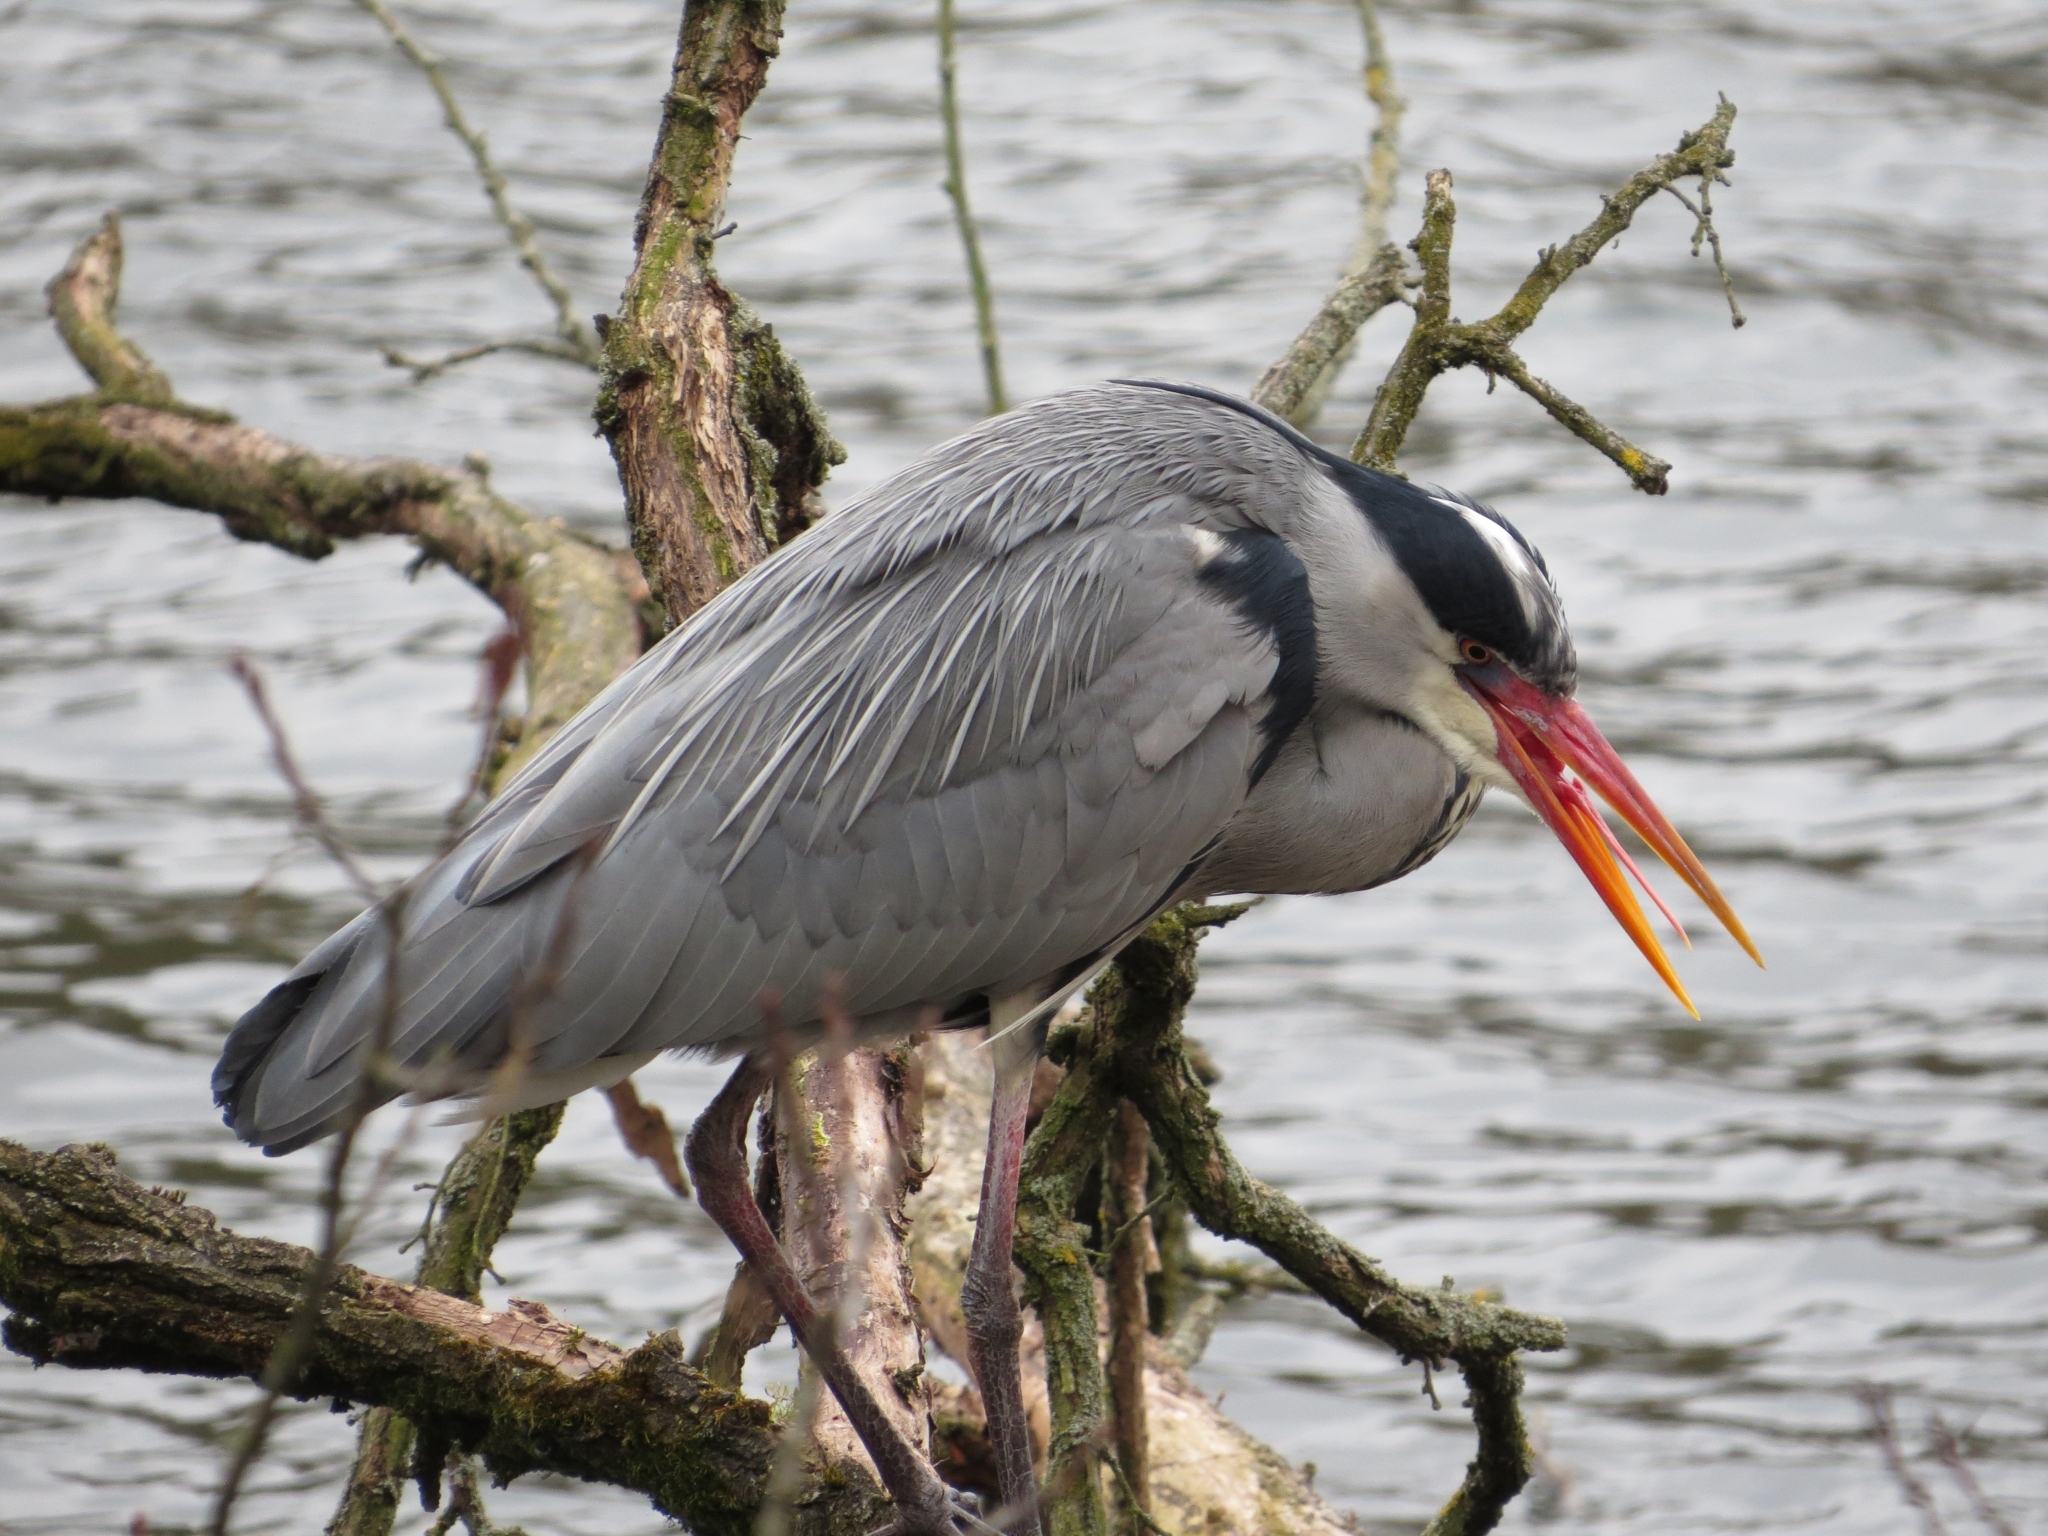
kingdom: Animalia
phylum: Chordata
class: Aves
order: Pelecaniformes
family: Ardeidae
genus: Ardea
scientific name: Ardea cinerea
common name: Grey heron
